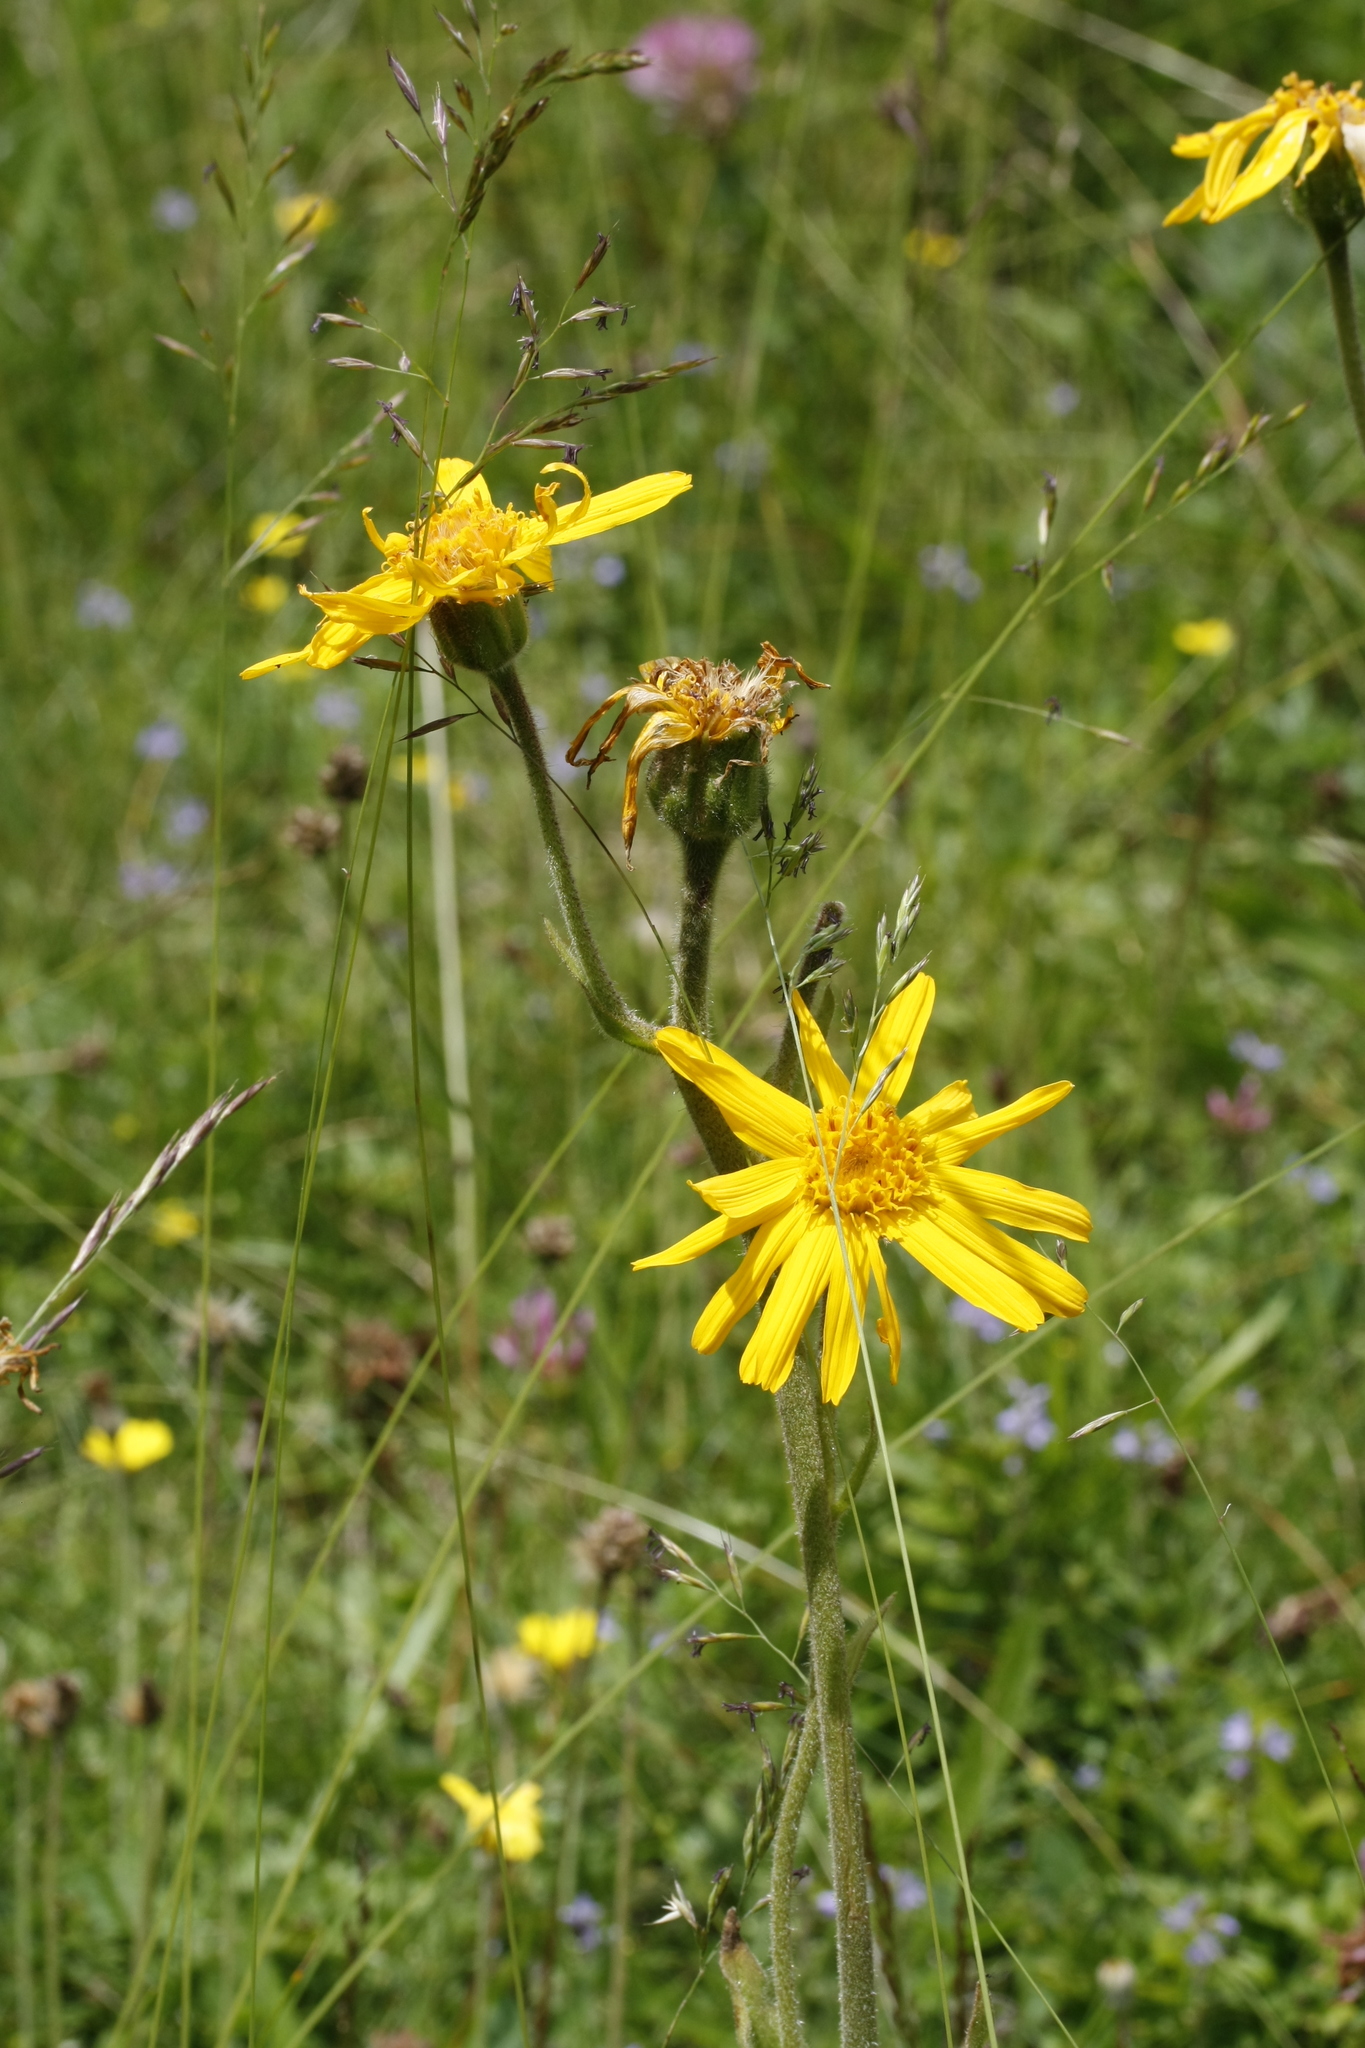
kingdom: Plantae
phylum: Tracheophyta
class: Magnoliopsida
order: Asterales
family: Asteraceae
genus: Arnica
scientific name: Arnica montana
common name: Leopard's bane
